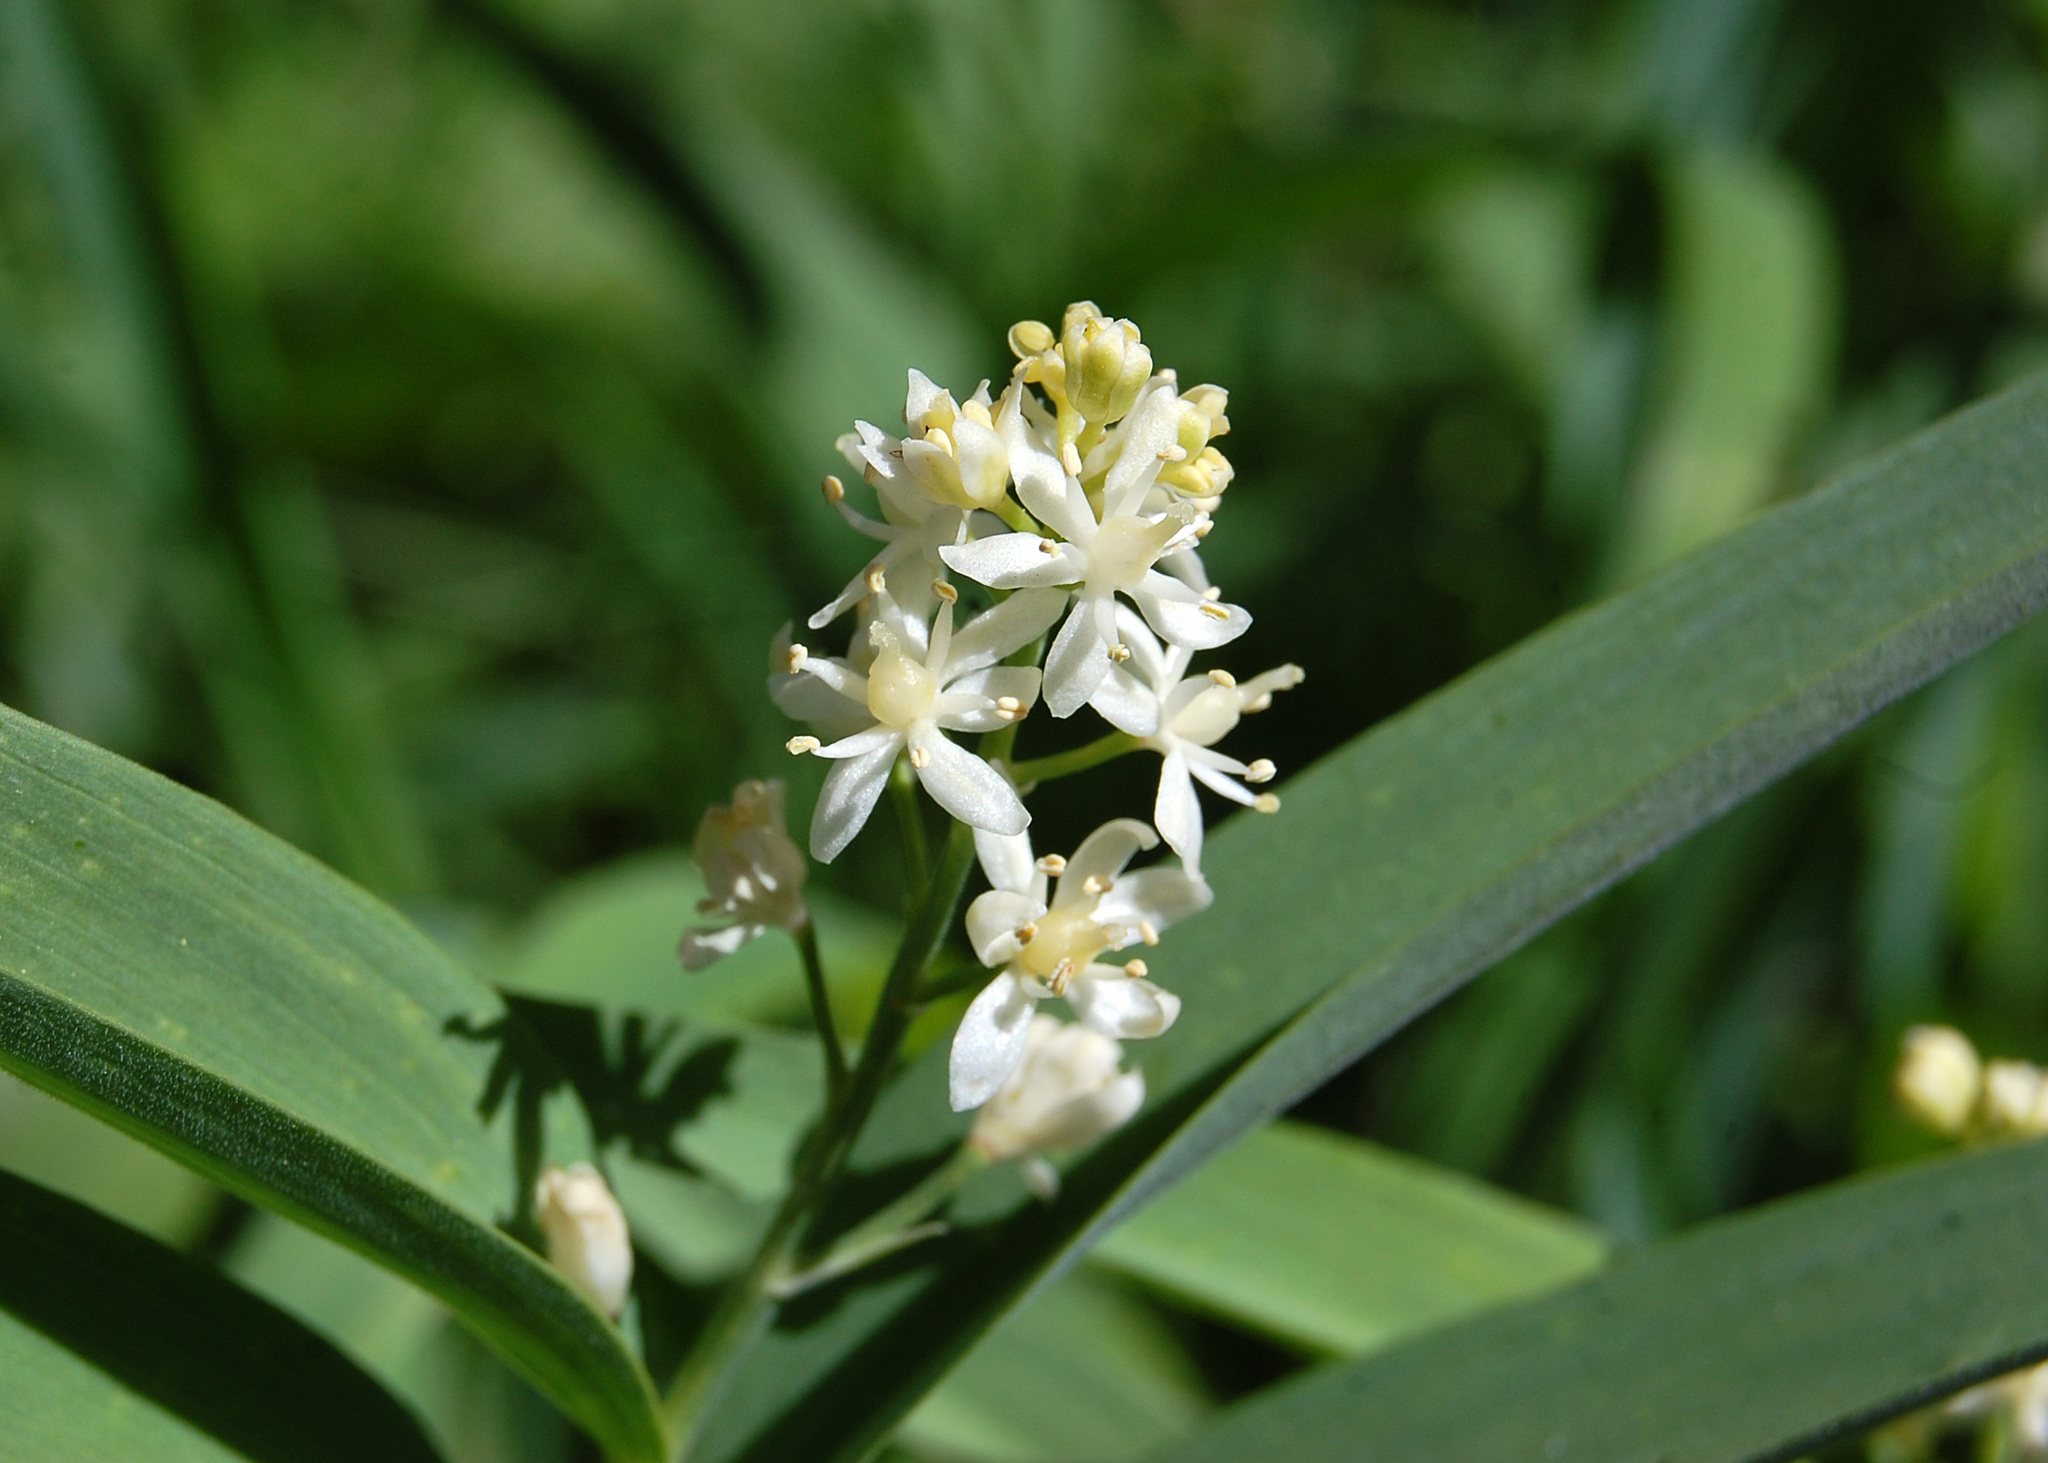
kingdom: Plantae
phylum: Tracheophyta
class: Liliopsida
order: Asparagales
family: Asparagaceae
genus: Maianthemum
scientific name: Maianthemum stellatum
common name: Little false solomon's seal
